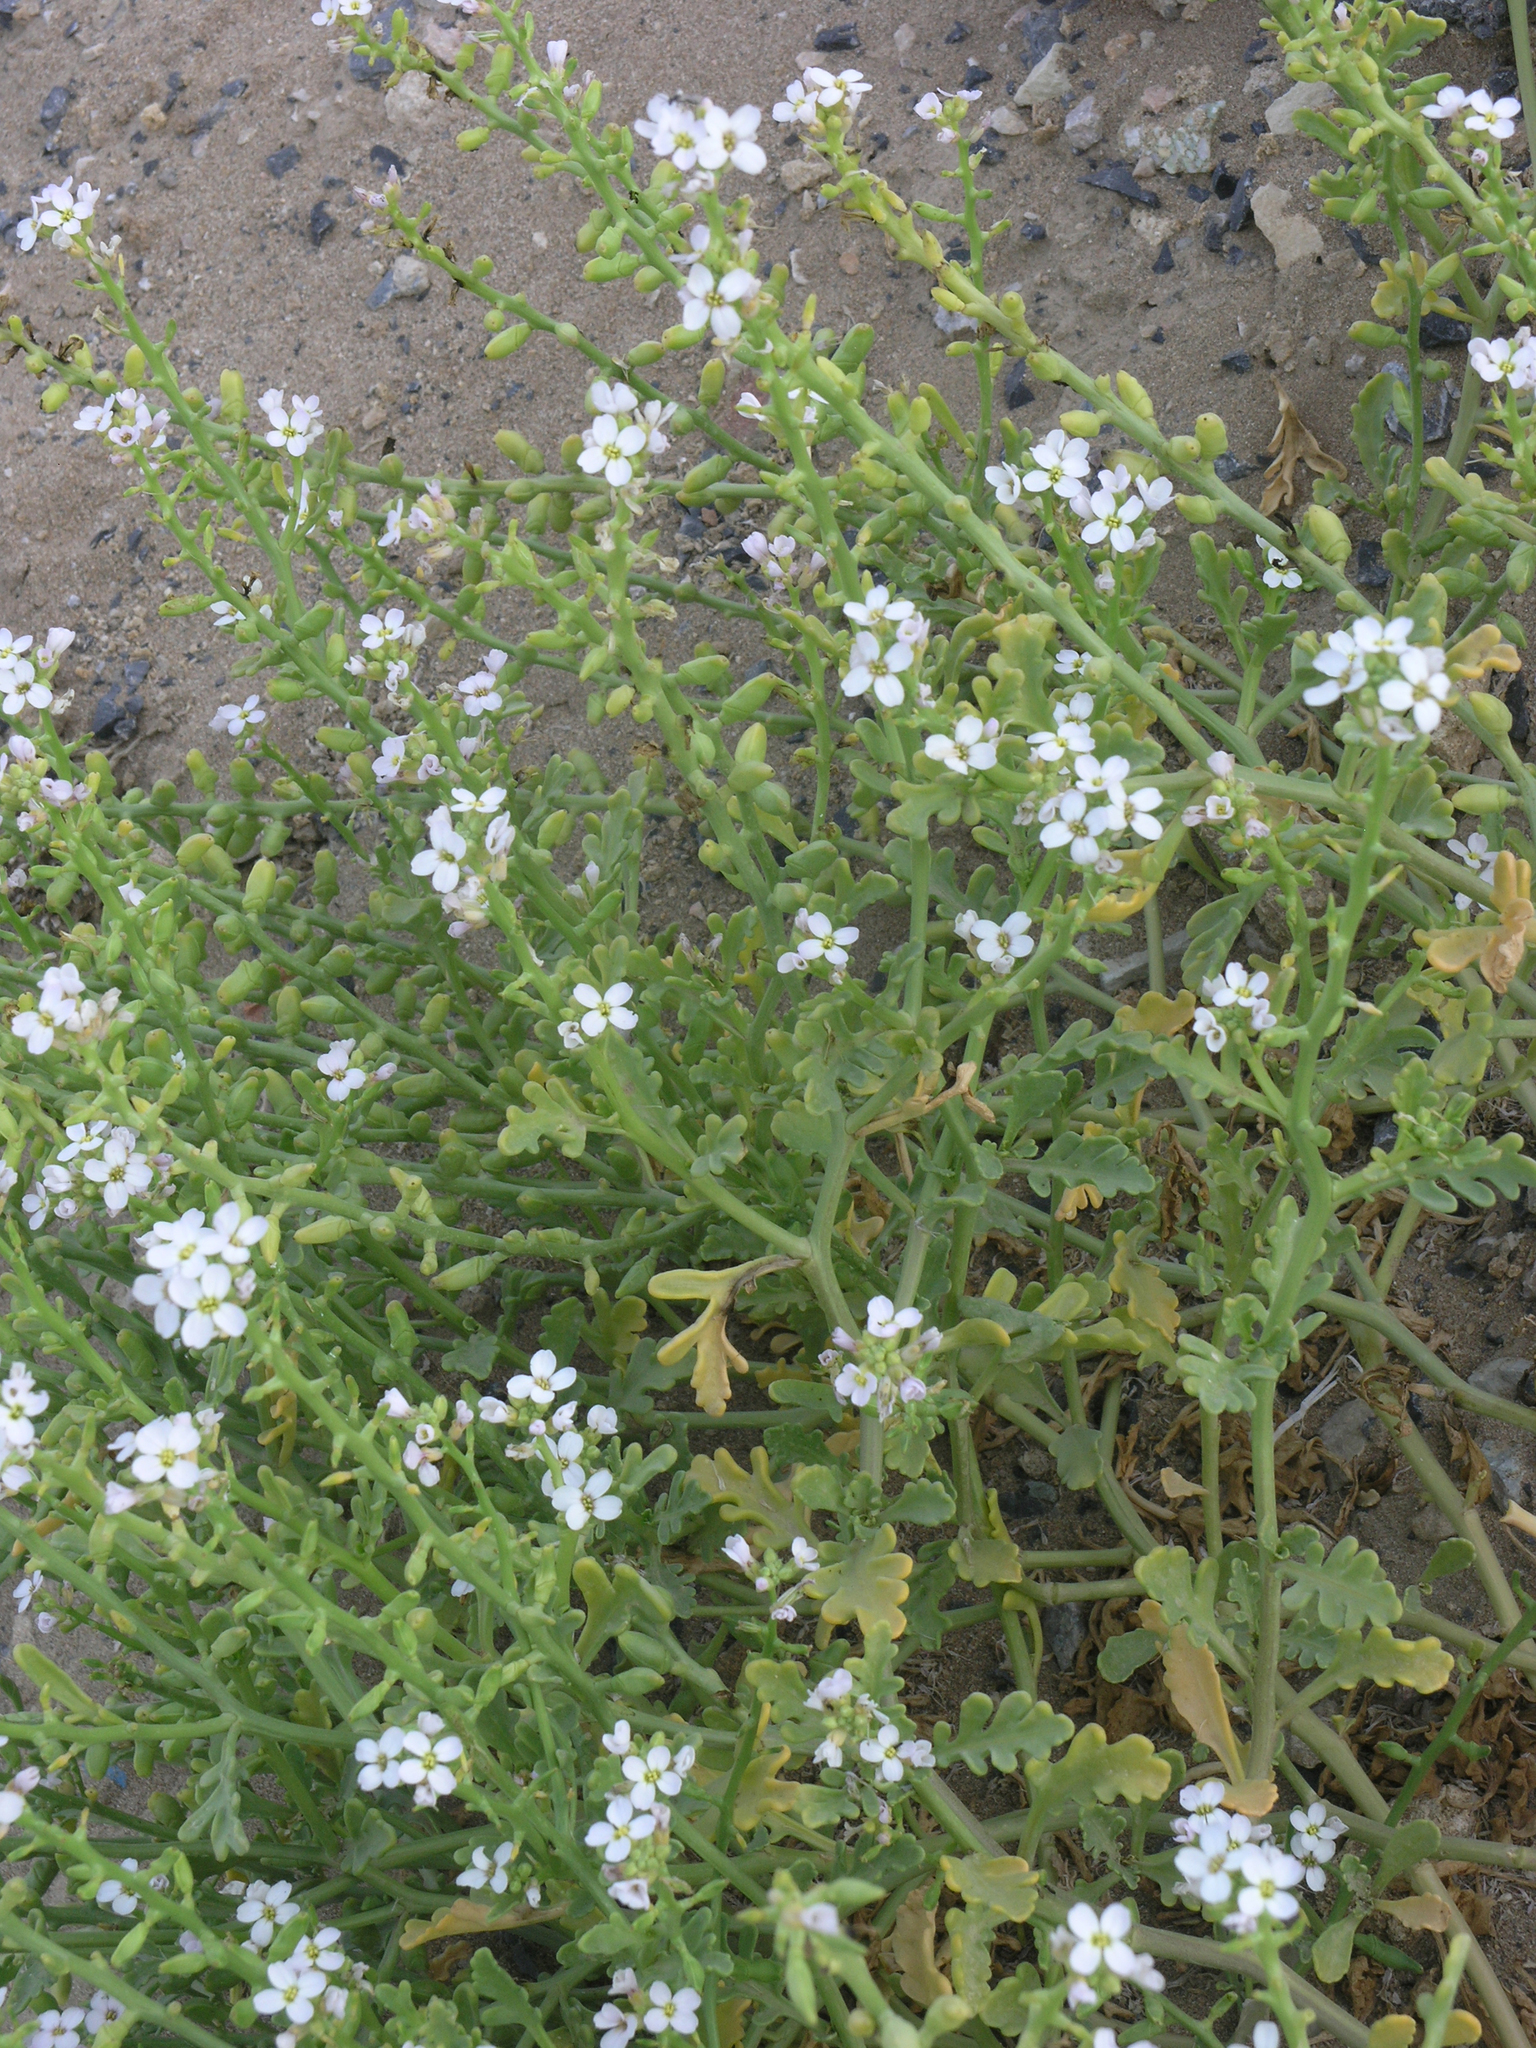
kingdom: Plantae
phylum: Tracheophyta
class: Magnoliopsida
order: Brassicales
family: Brassicaceae
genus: Cakile
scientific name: Cakile maritima
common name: Sea rocket
